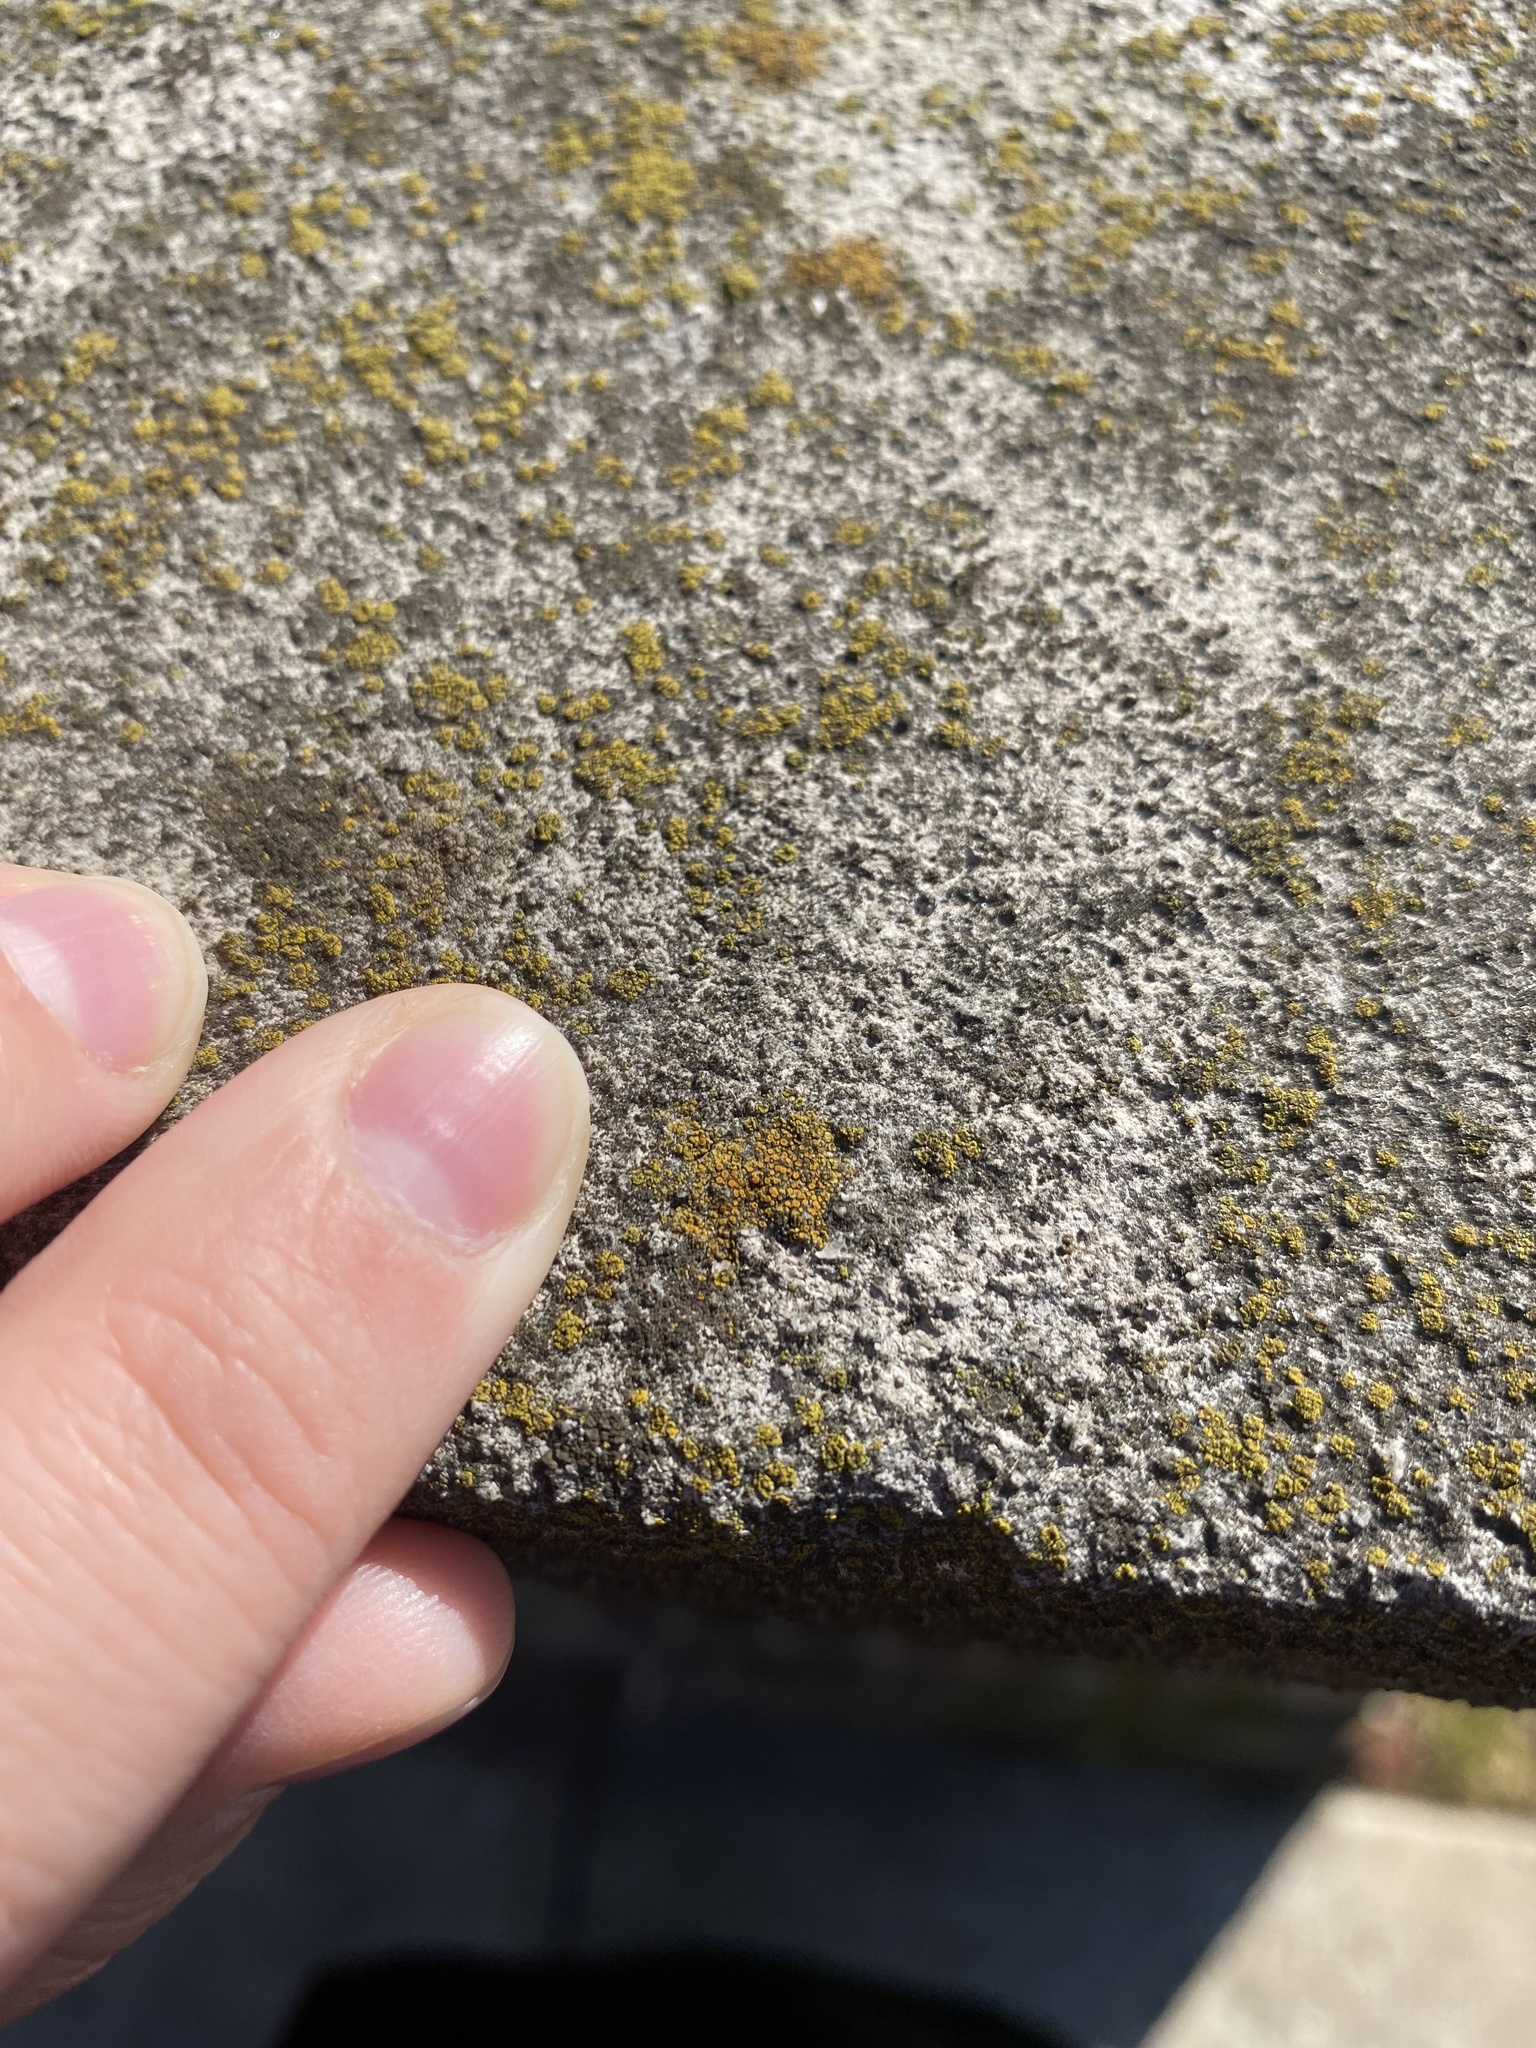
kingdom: Fungi
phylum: Ascomycota
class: Lecanoromycetes
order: Teloschistales
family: Teloschistaceae
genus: Xanthocarpia
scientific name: Xanthocarpia feracissima
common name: Sidewalk firedot
